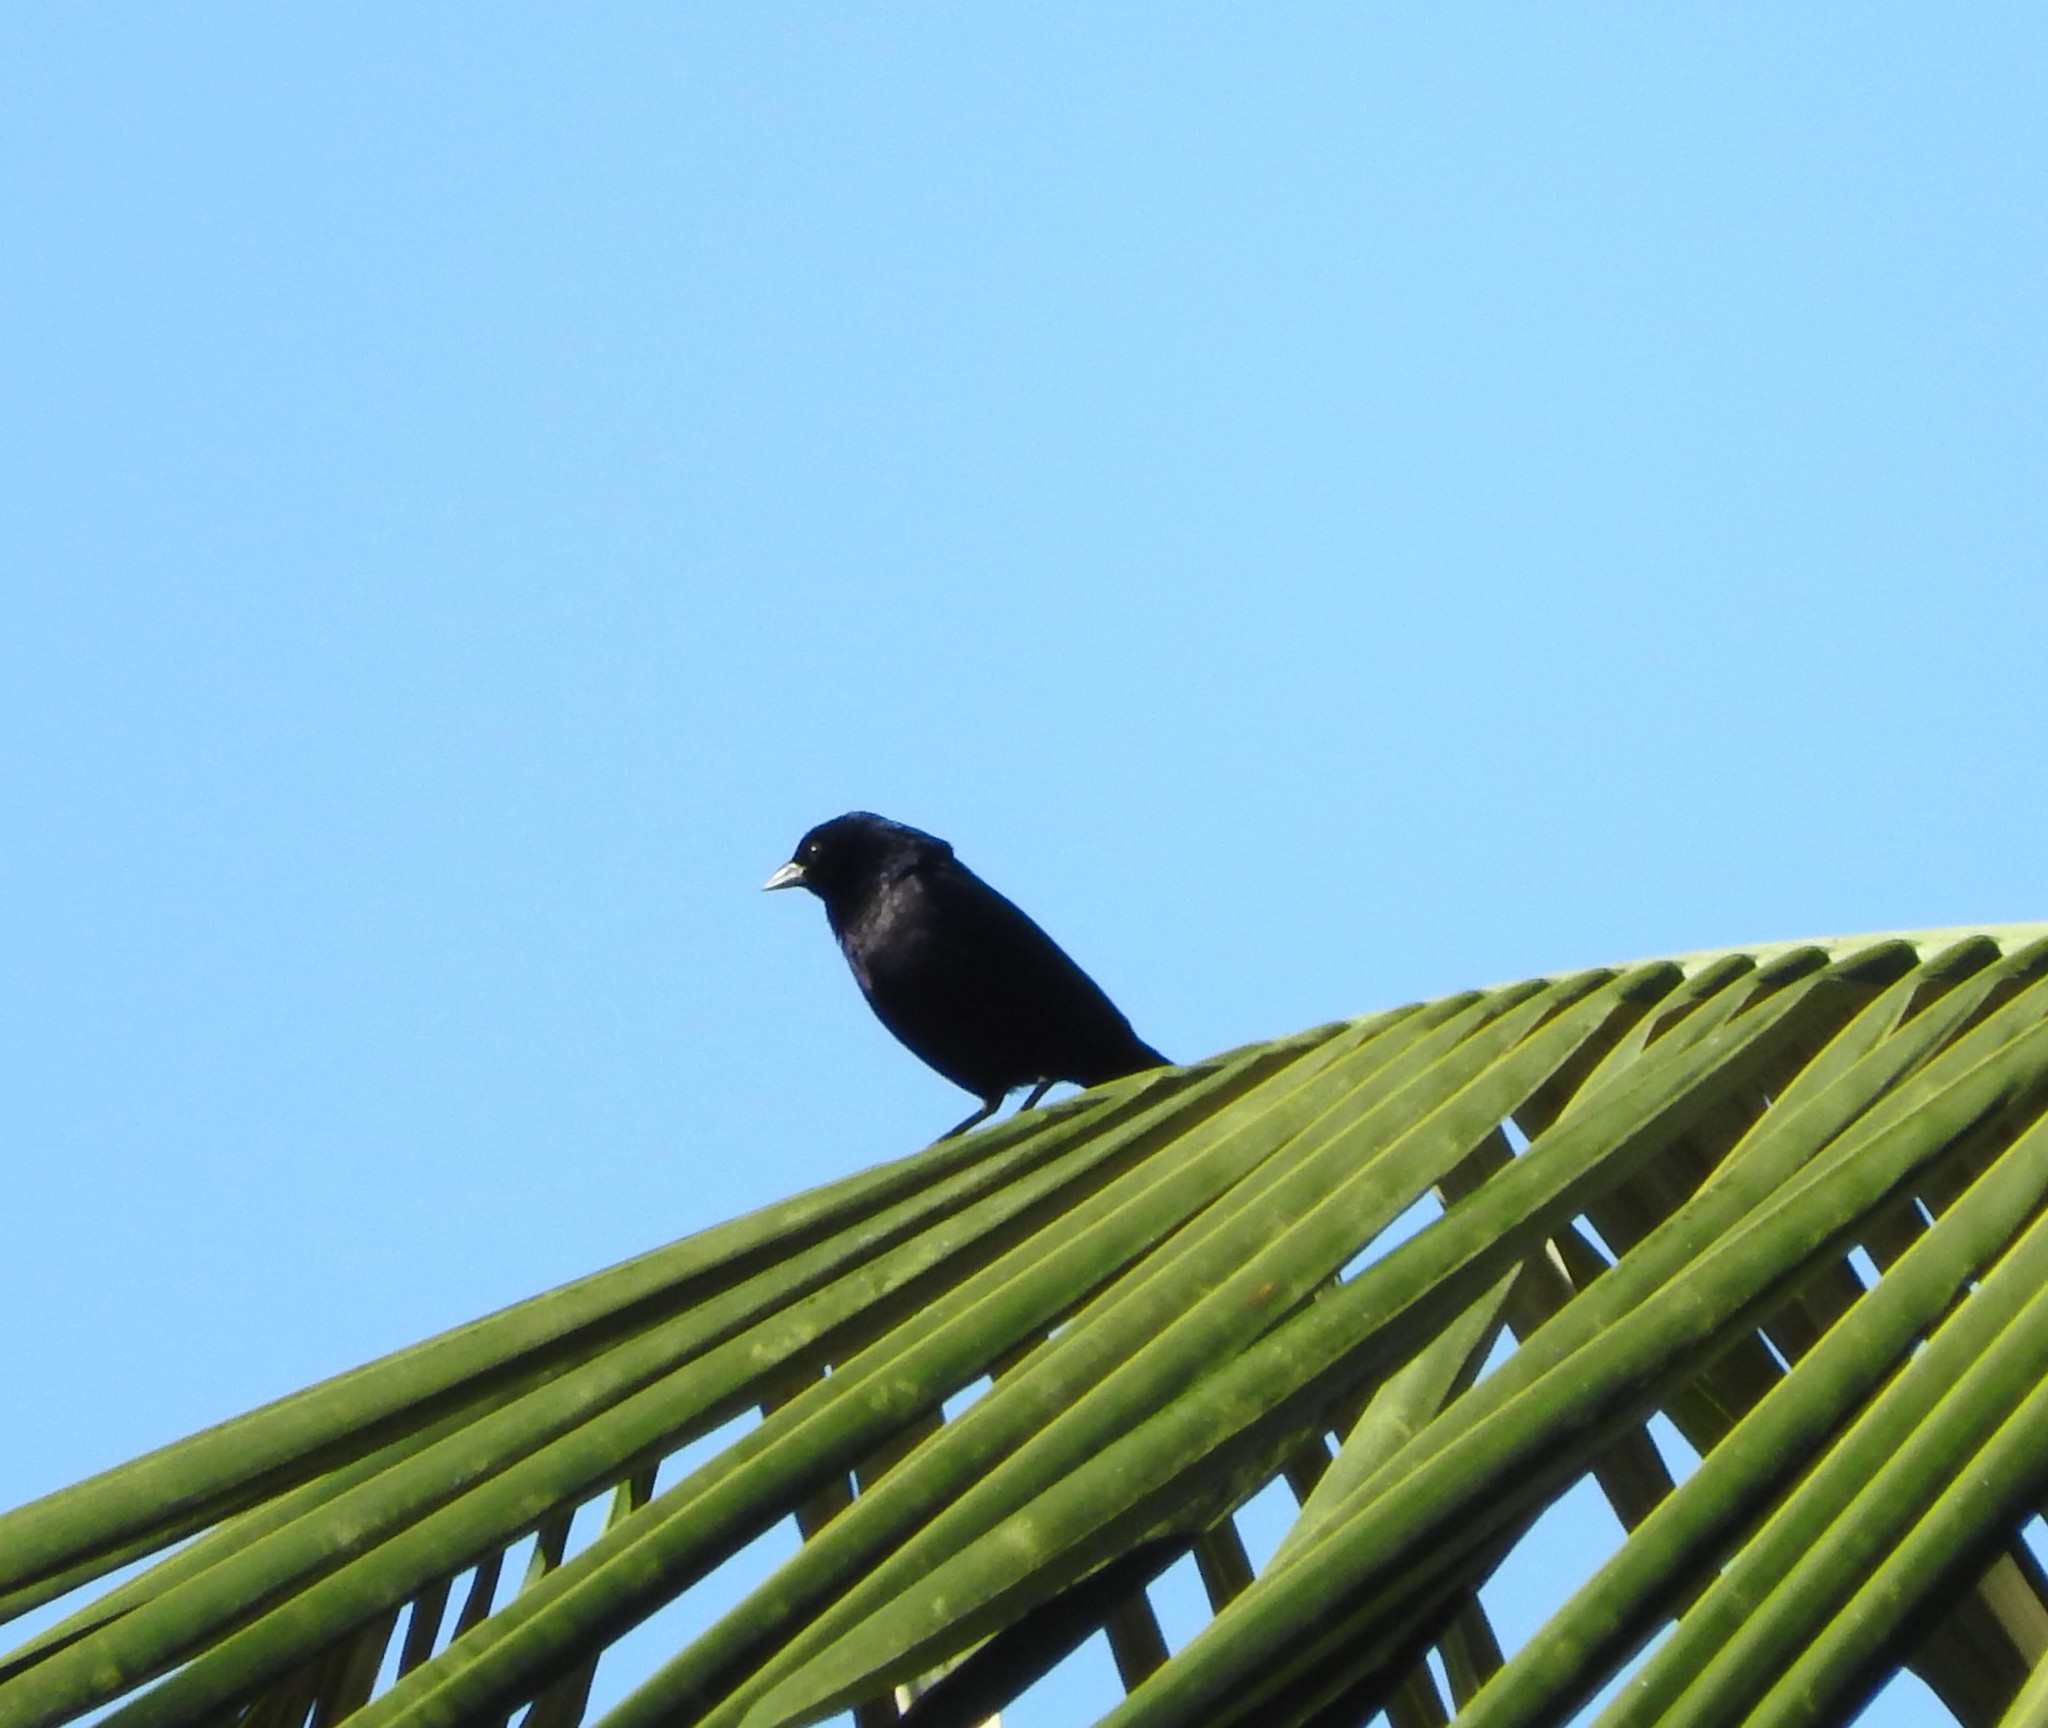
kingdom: Animalia
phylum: Chordata
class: Aves
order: Passeriformes
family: Icteridae
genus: Molothrus
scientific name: Molothrus bonariensis
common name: Shiny cowbird
